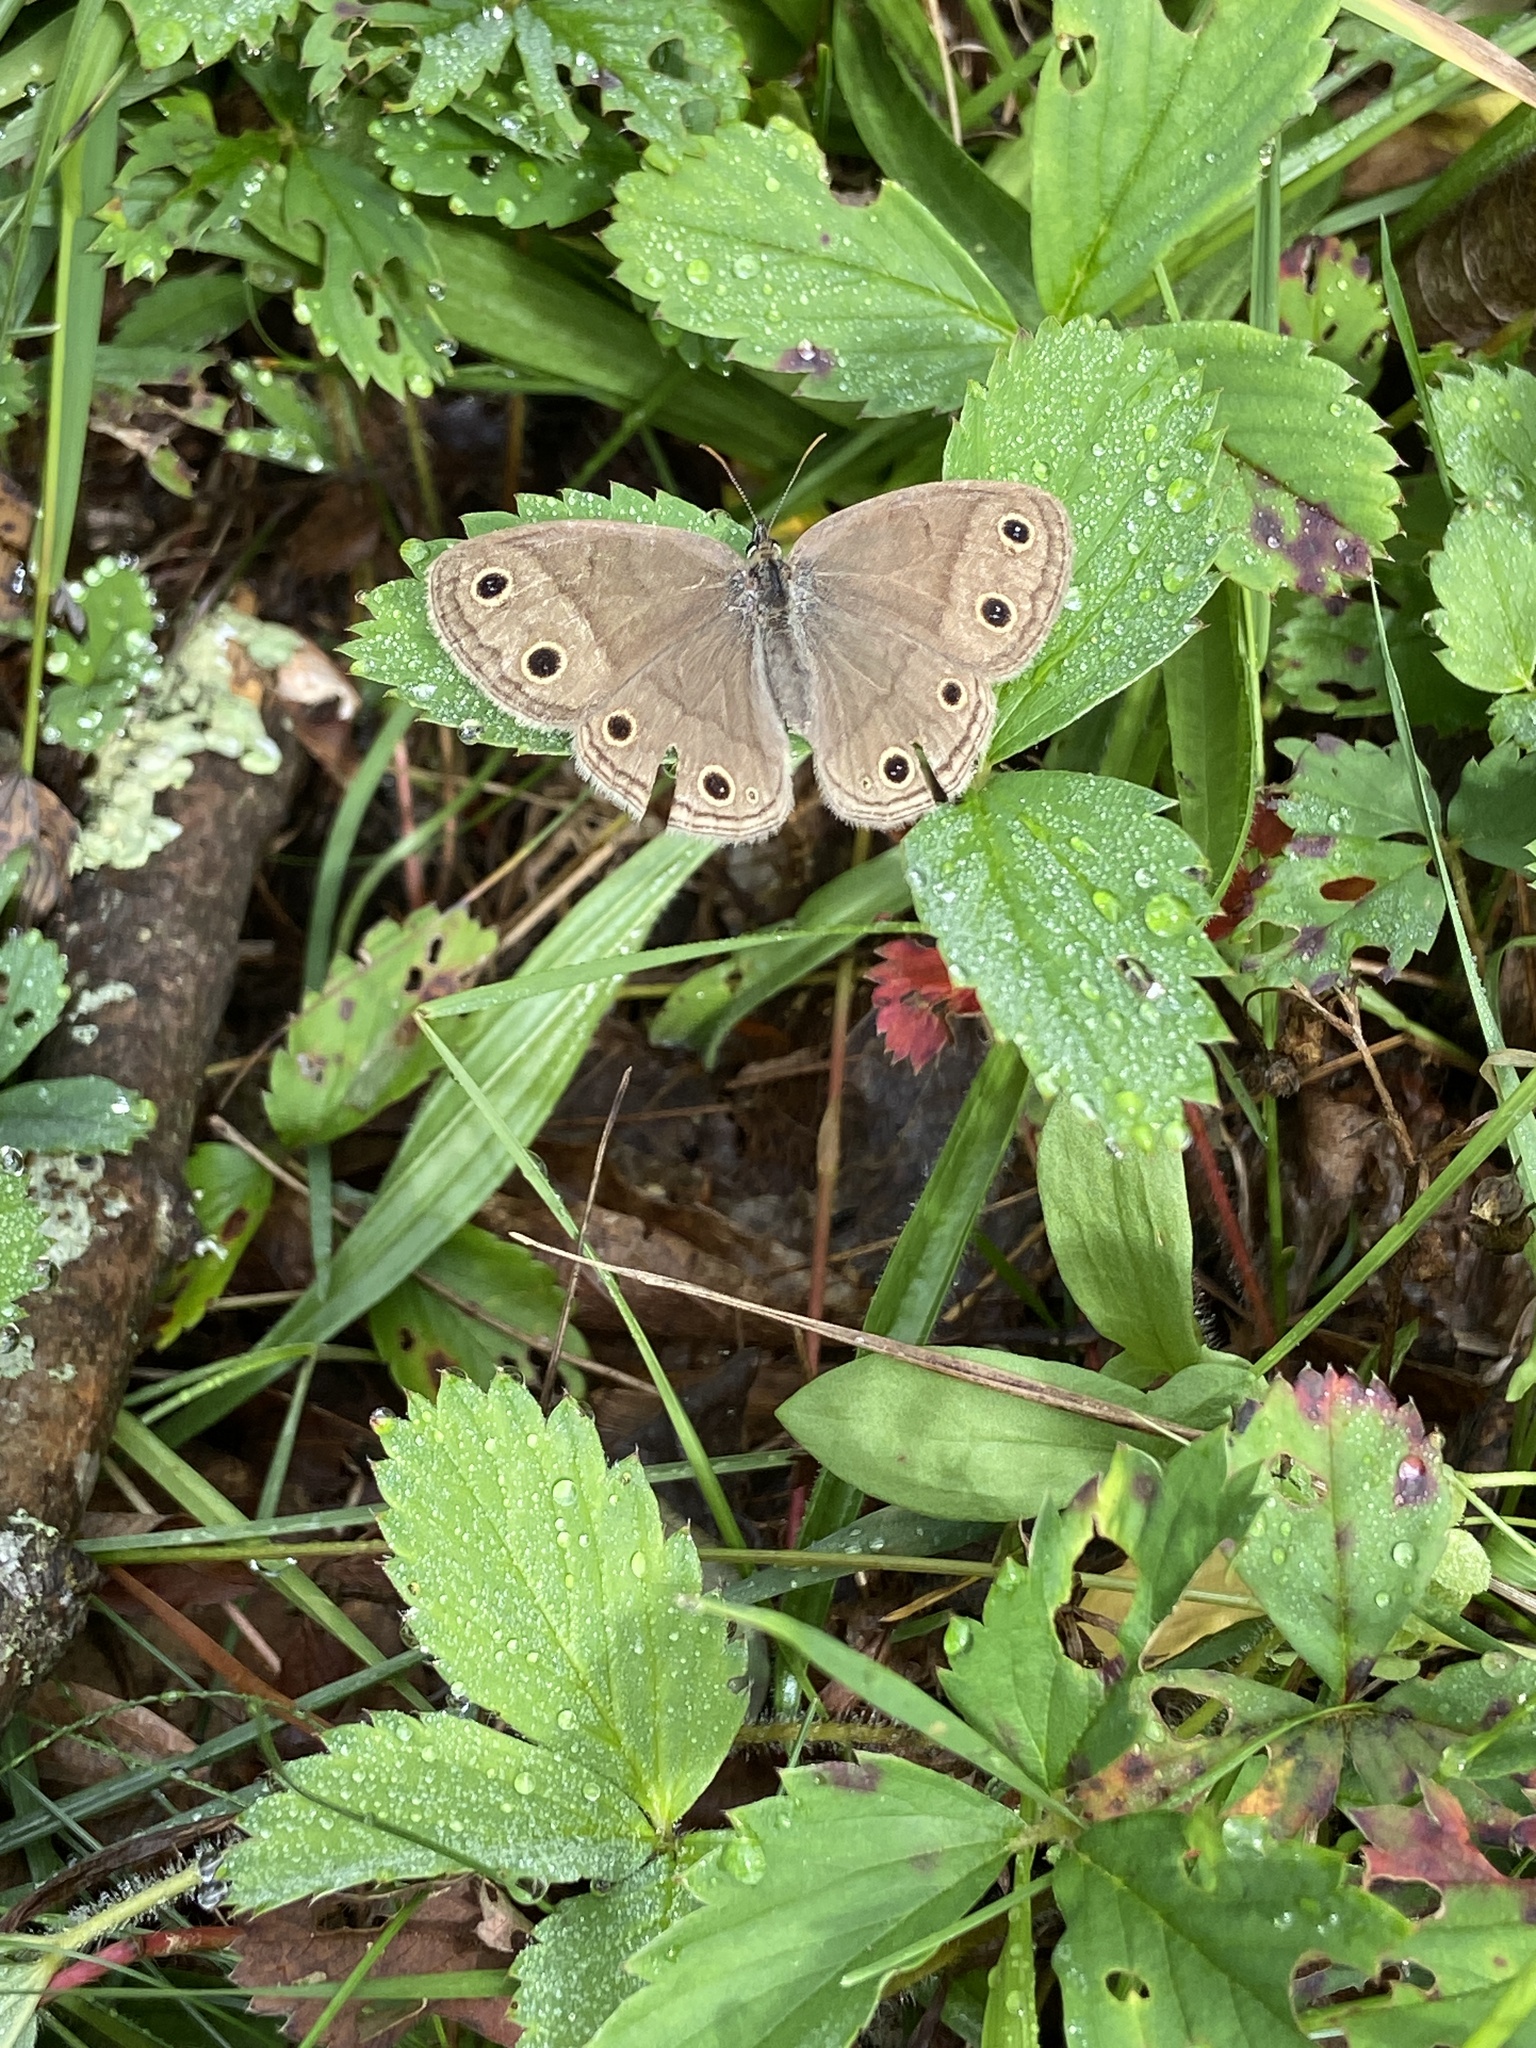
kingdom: Animalia
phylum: Arthropoda
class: Insecta
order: Lepidoptera
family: Nymphalidae
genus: Euptychia
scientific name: Euptychia cymela
